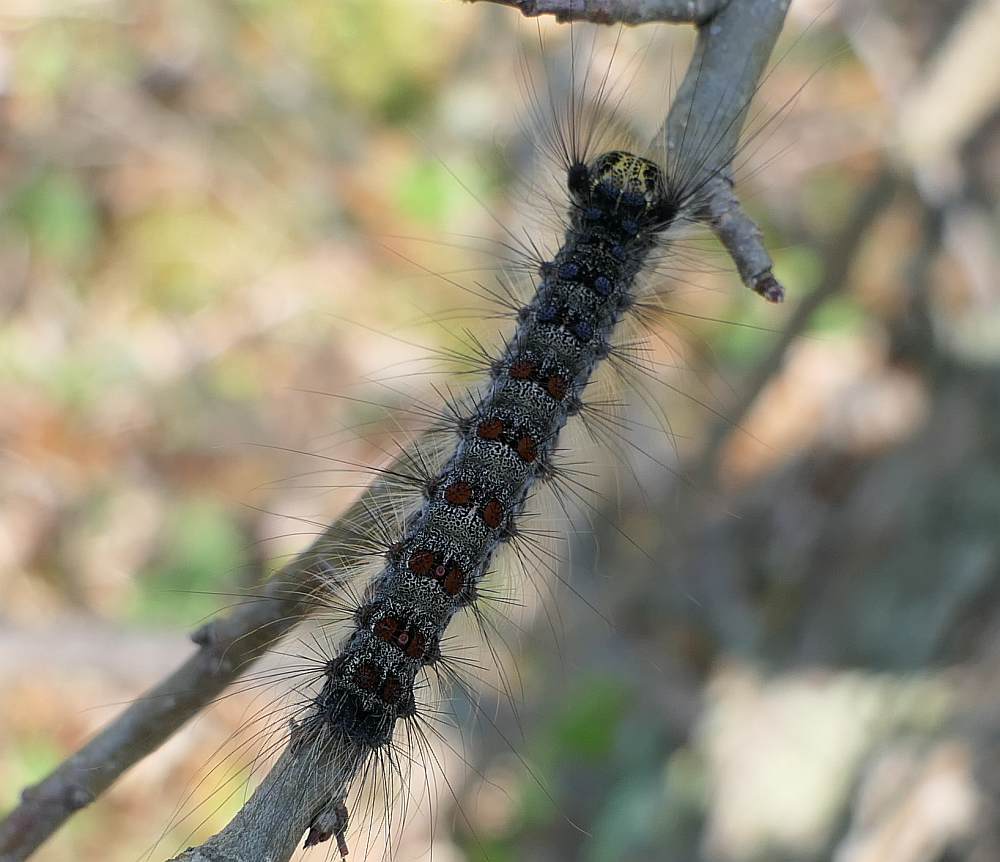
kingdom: Animalia
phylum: Arthropoda
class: Insecta
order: Lepidoptera
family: Erebidae
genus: Lymantria
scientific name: Lymantria dispar
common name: Gypsy moth
